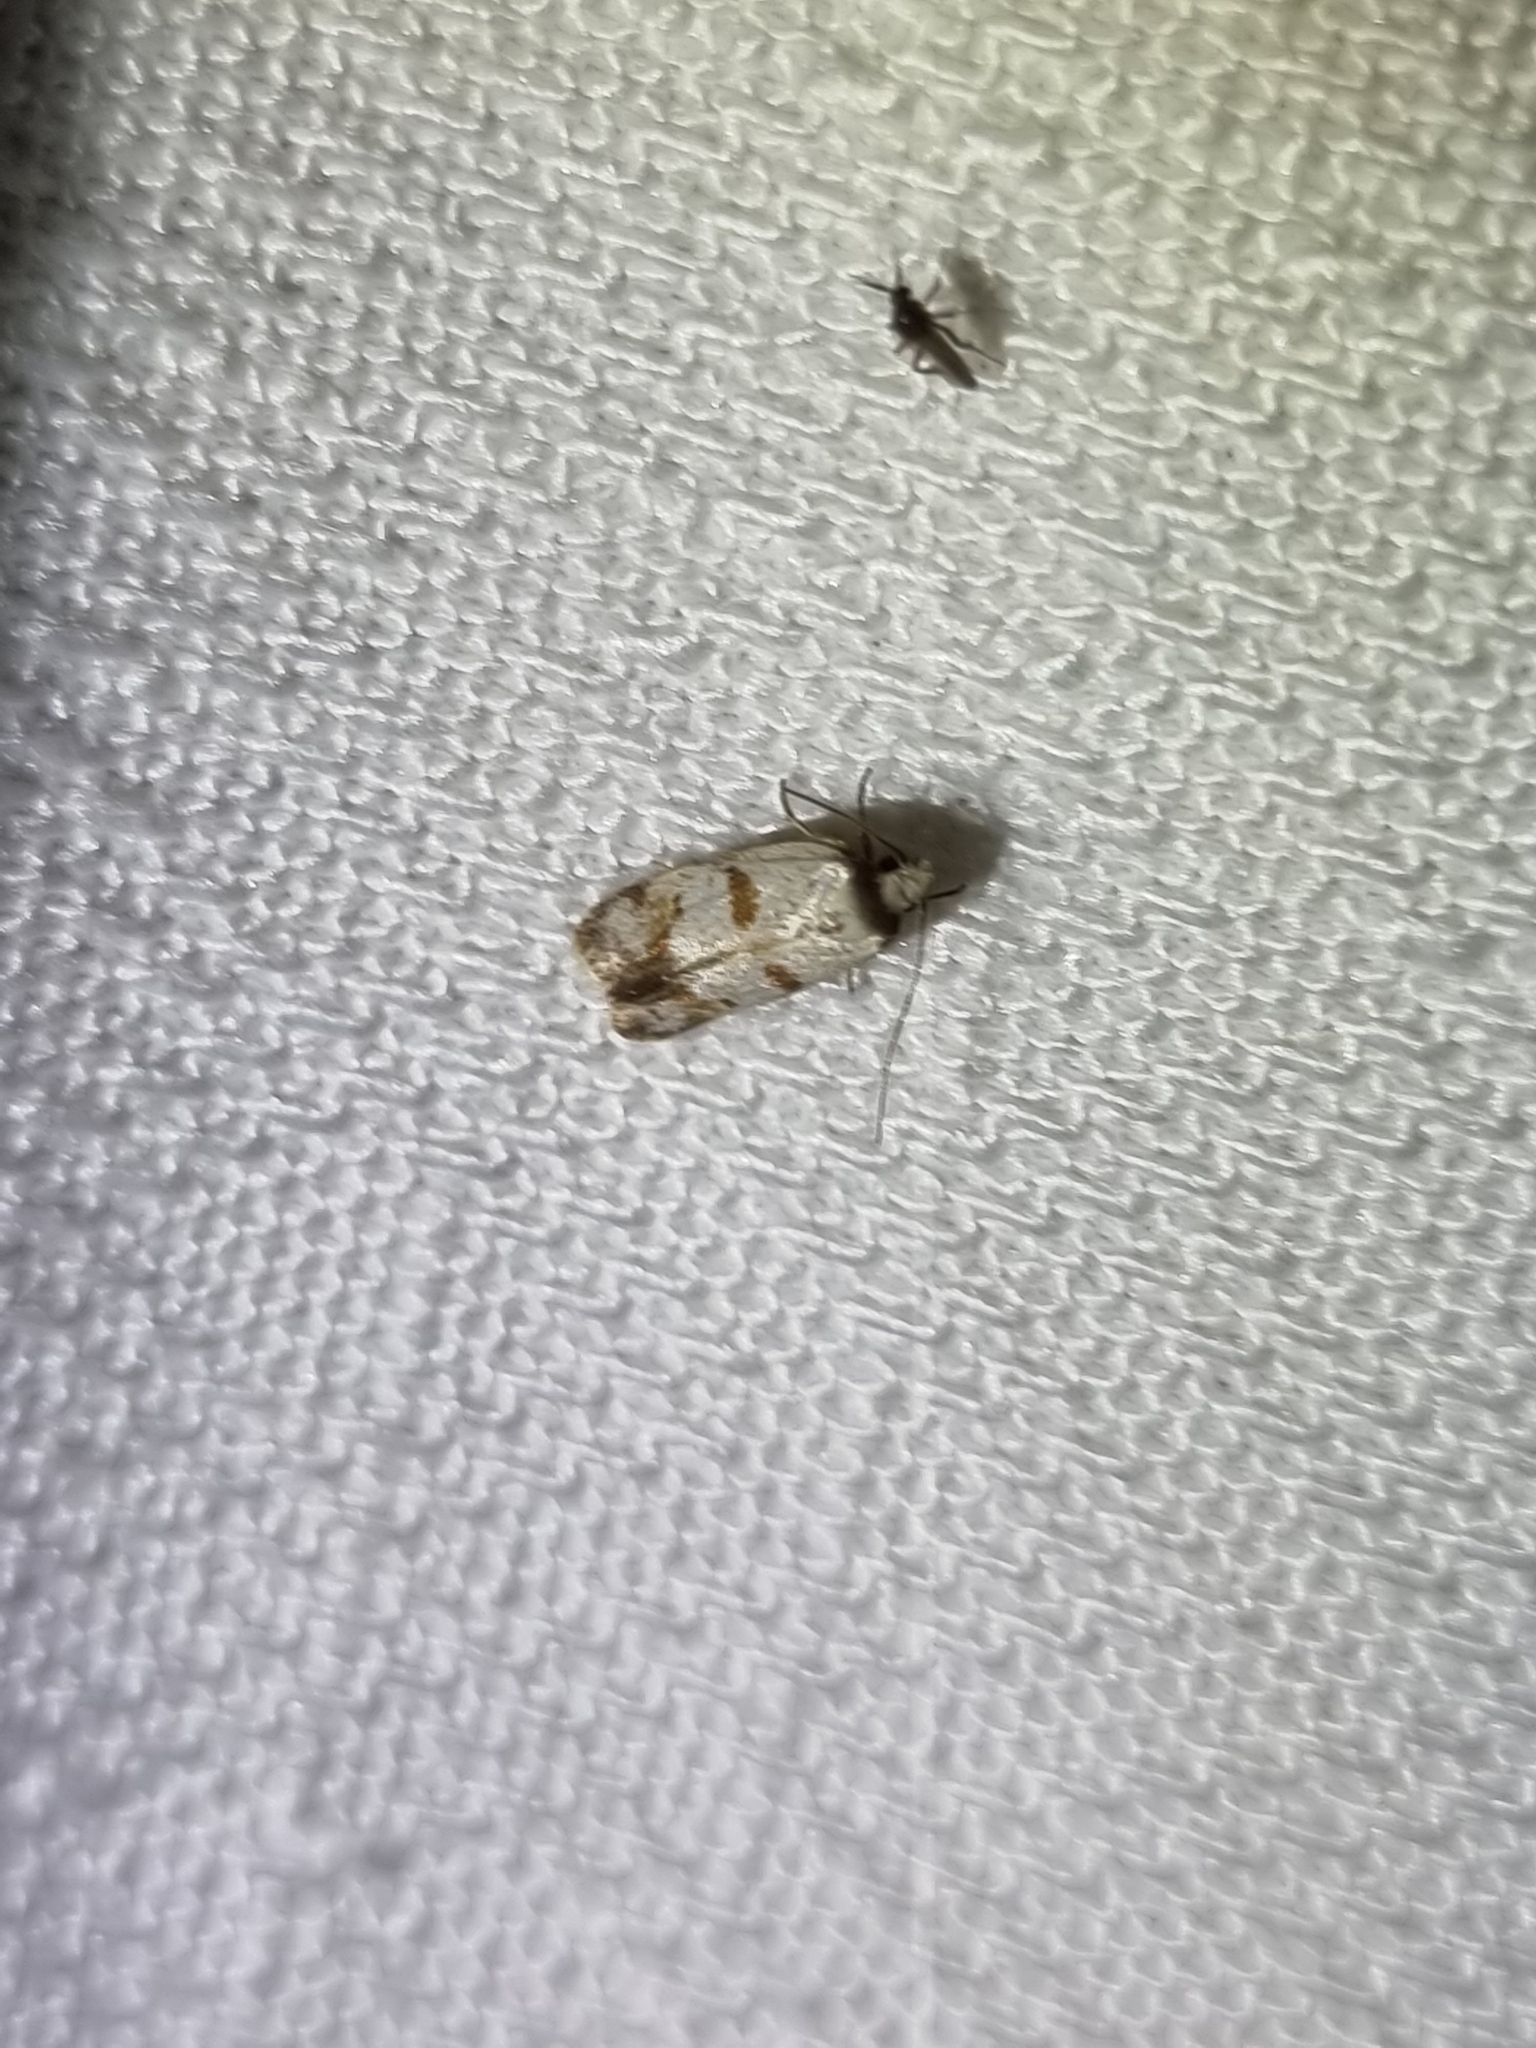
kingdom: Animalia
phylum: Arthropoda
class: Insecta
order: Lepidoptera
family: Oecophoridae
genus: Philobota
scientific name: Philobota curvilinea
